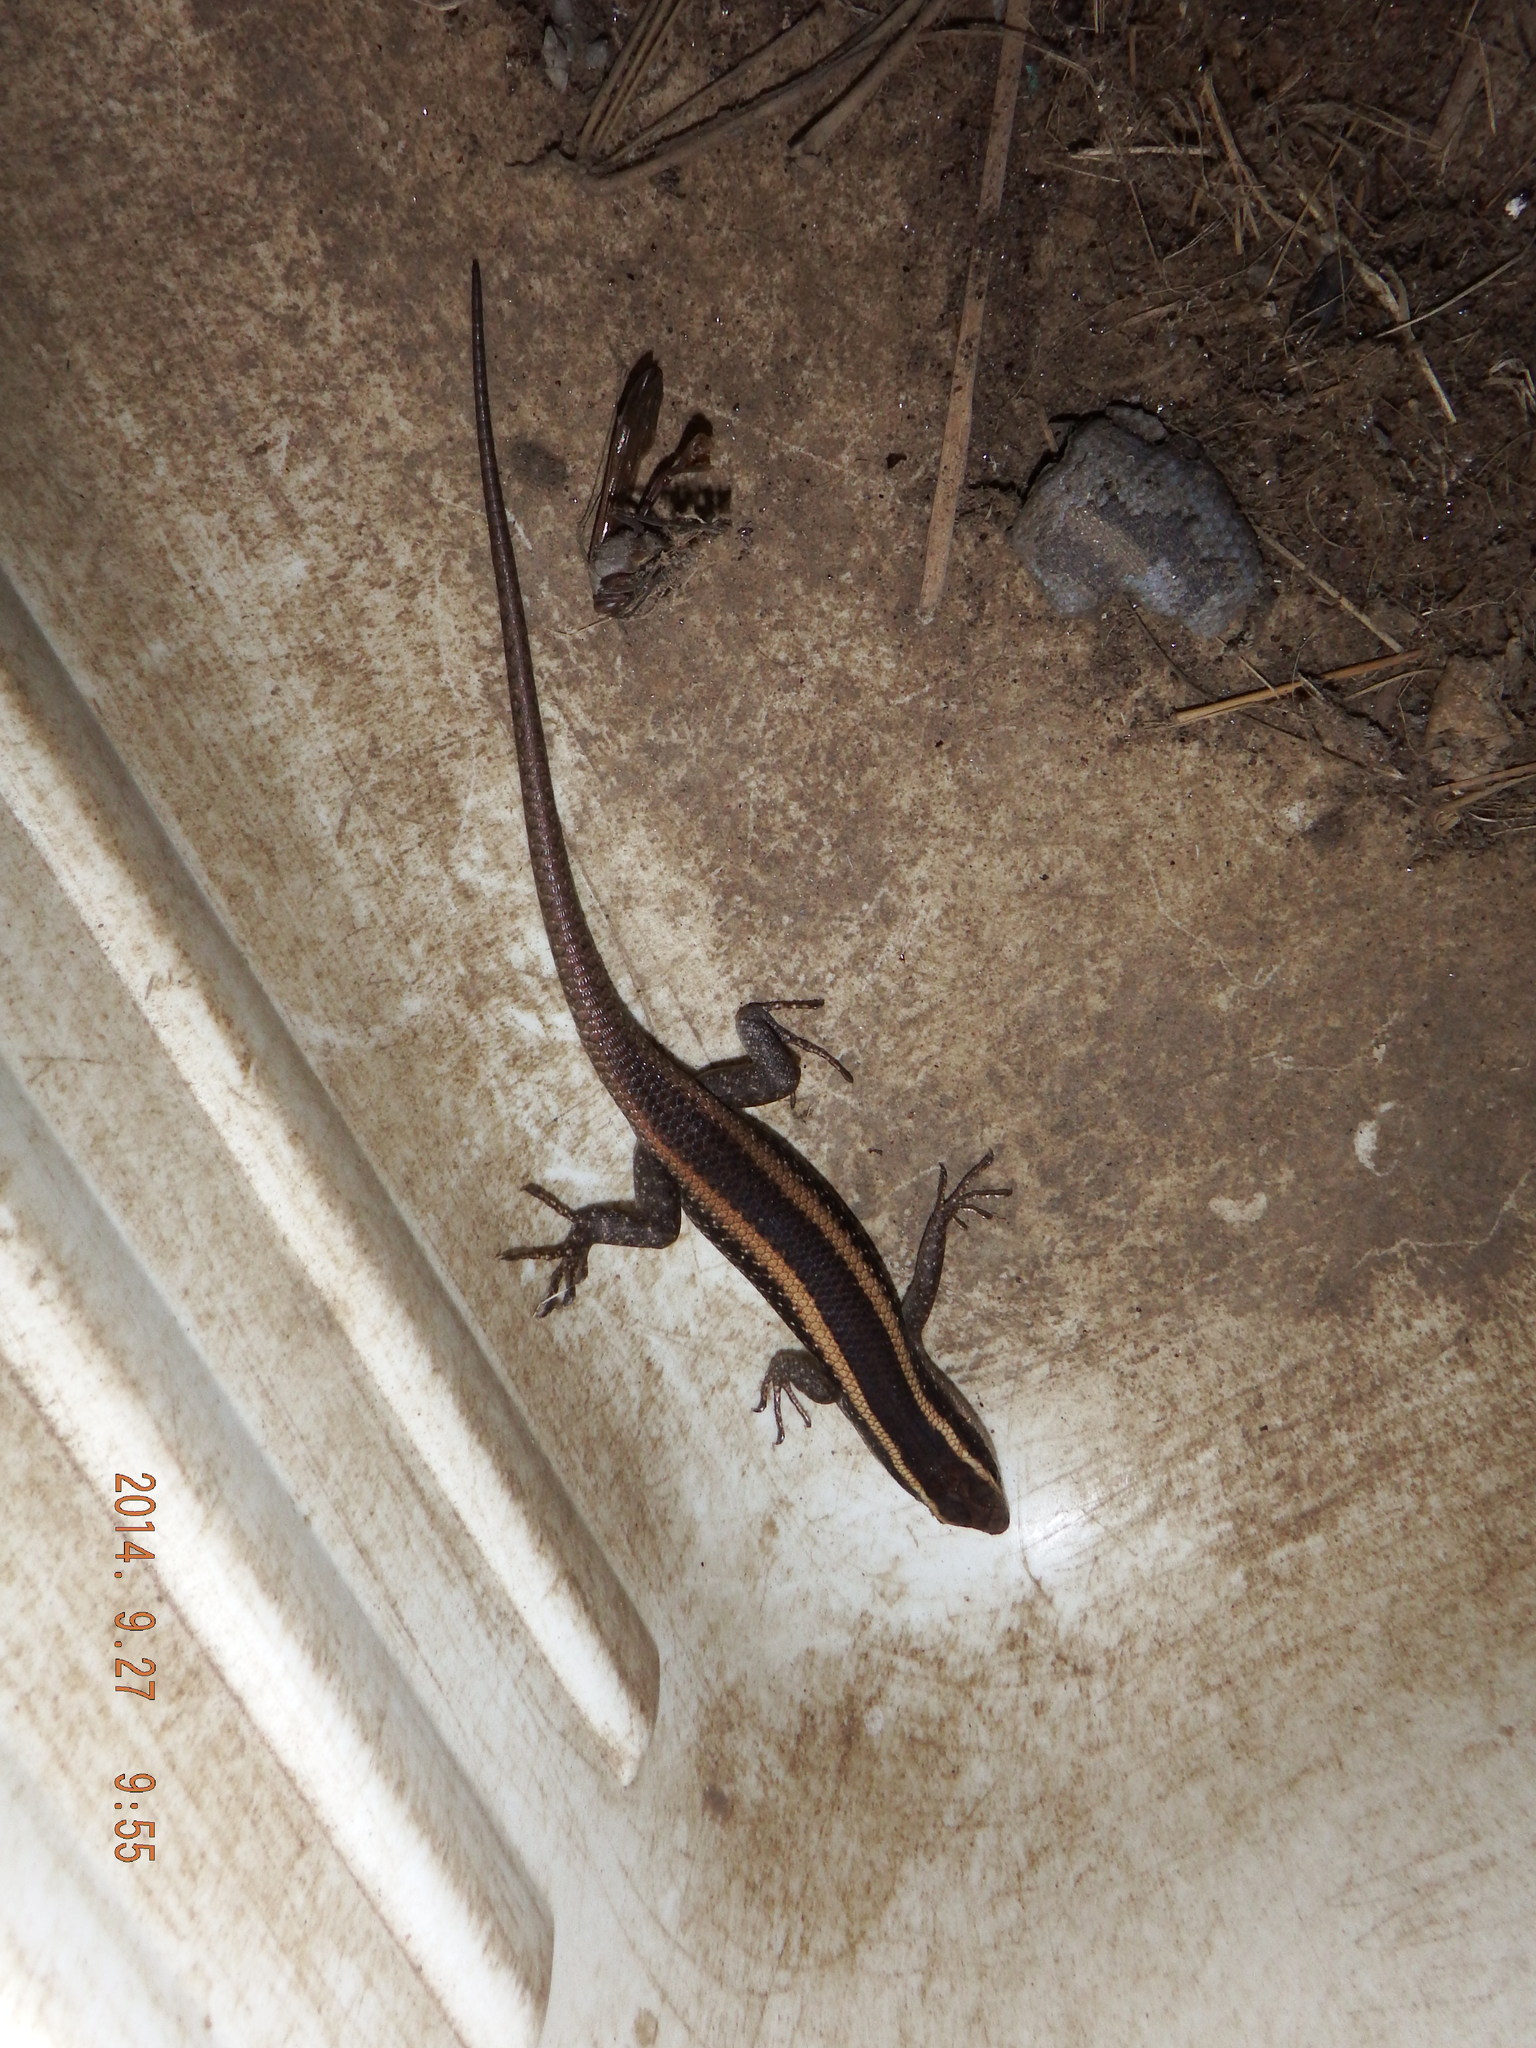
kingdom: Animalia
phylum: Chordata
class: Squamata
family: Scincidae
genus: Trachylepis
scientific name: Trachylepis striata
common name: African striped mabuya
